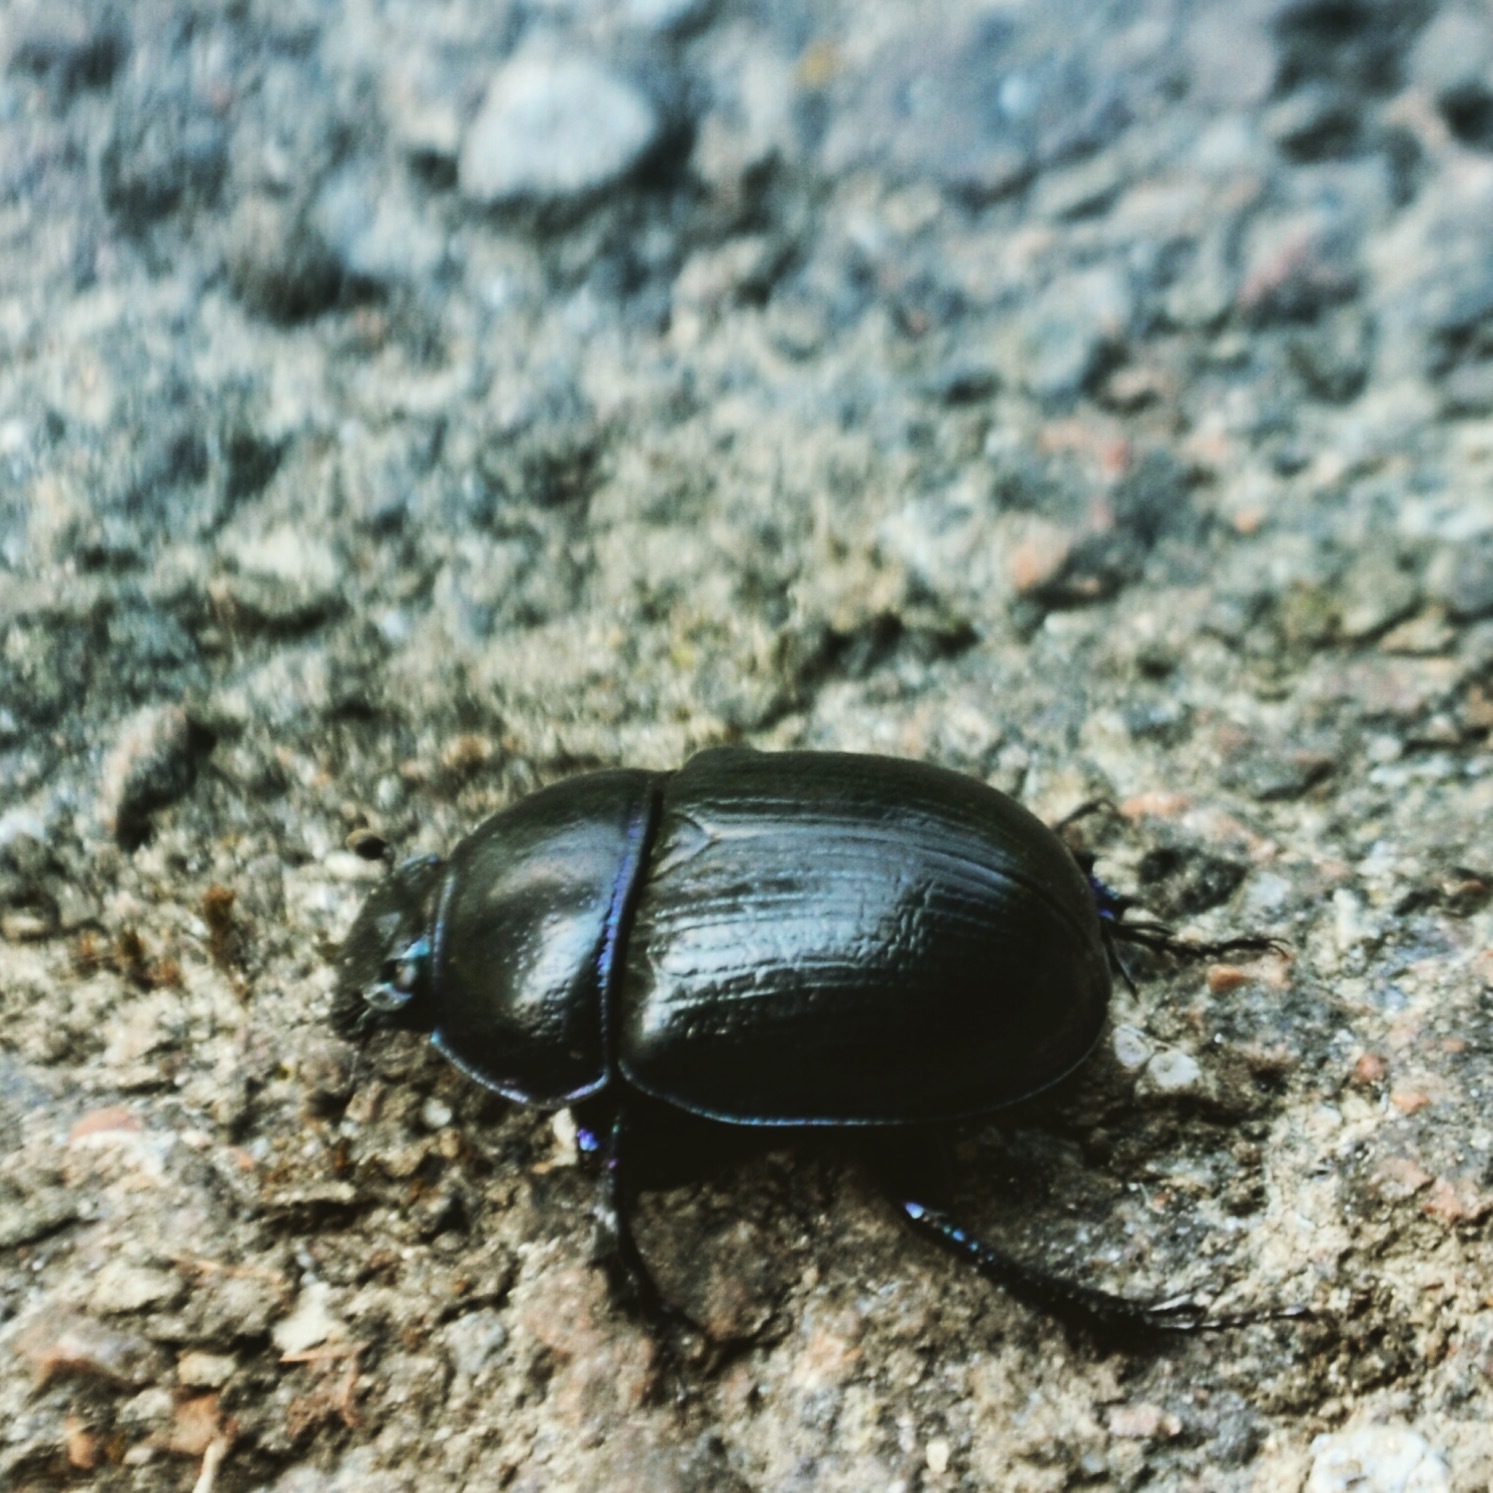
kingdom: Animalia
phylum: Arthropoda
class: Insecta
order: Coleoptera
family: Geotrupidae
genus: Anoplotrupes
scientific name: Anoplotrupes stercorosus
